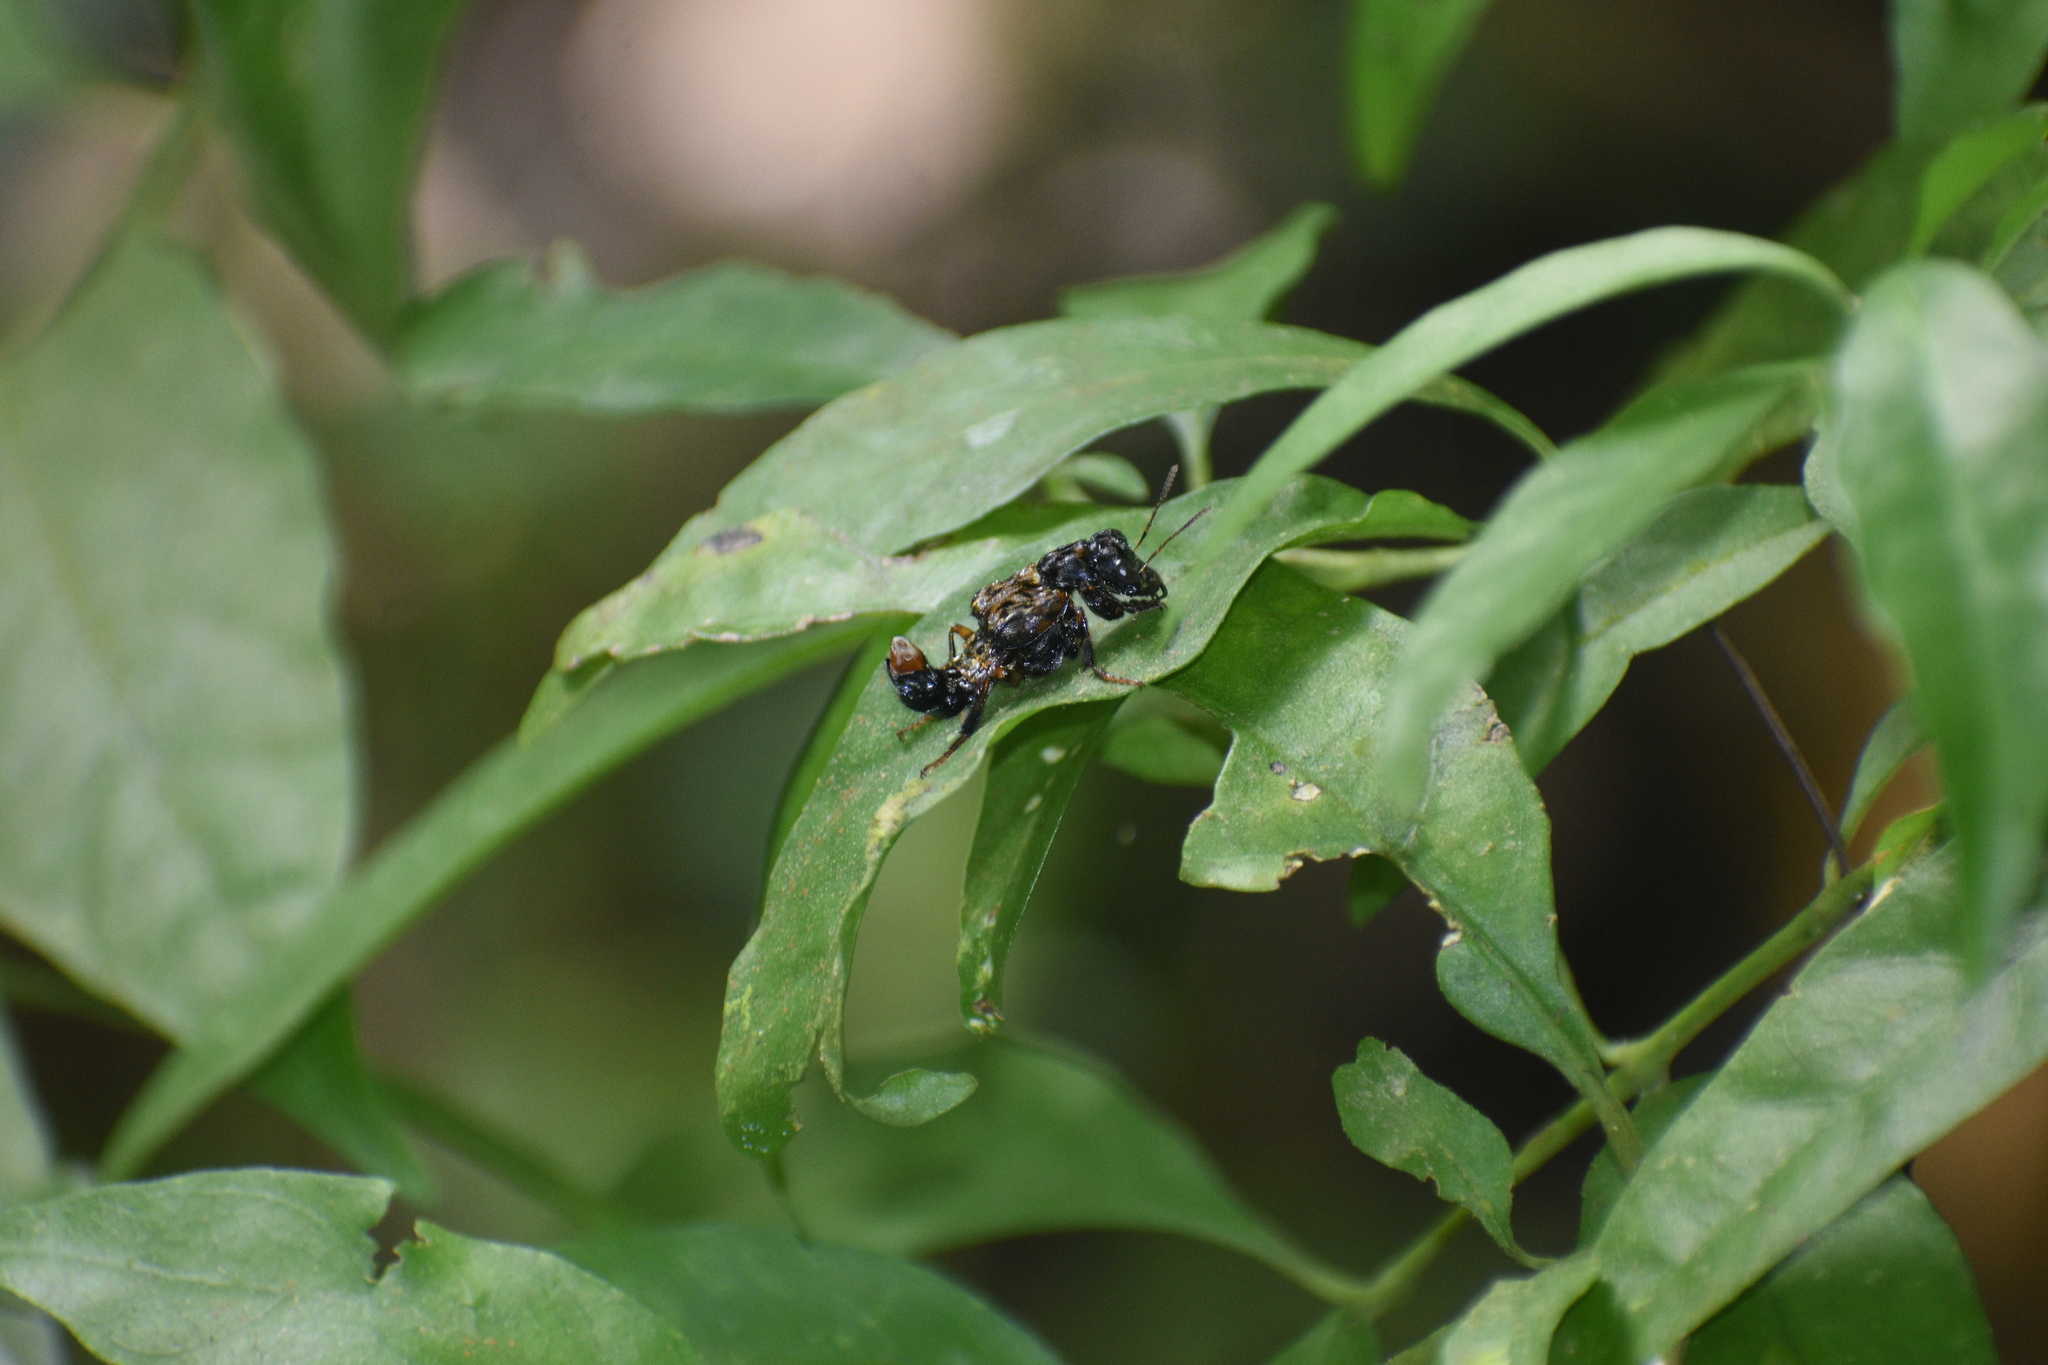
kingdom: Animalia
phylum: Arthropoda
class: Insecta
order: Coleoptera
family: Staphylinidae
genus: Leistotrophus
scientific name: Leistotrophus versicolor
